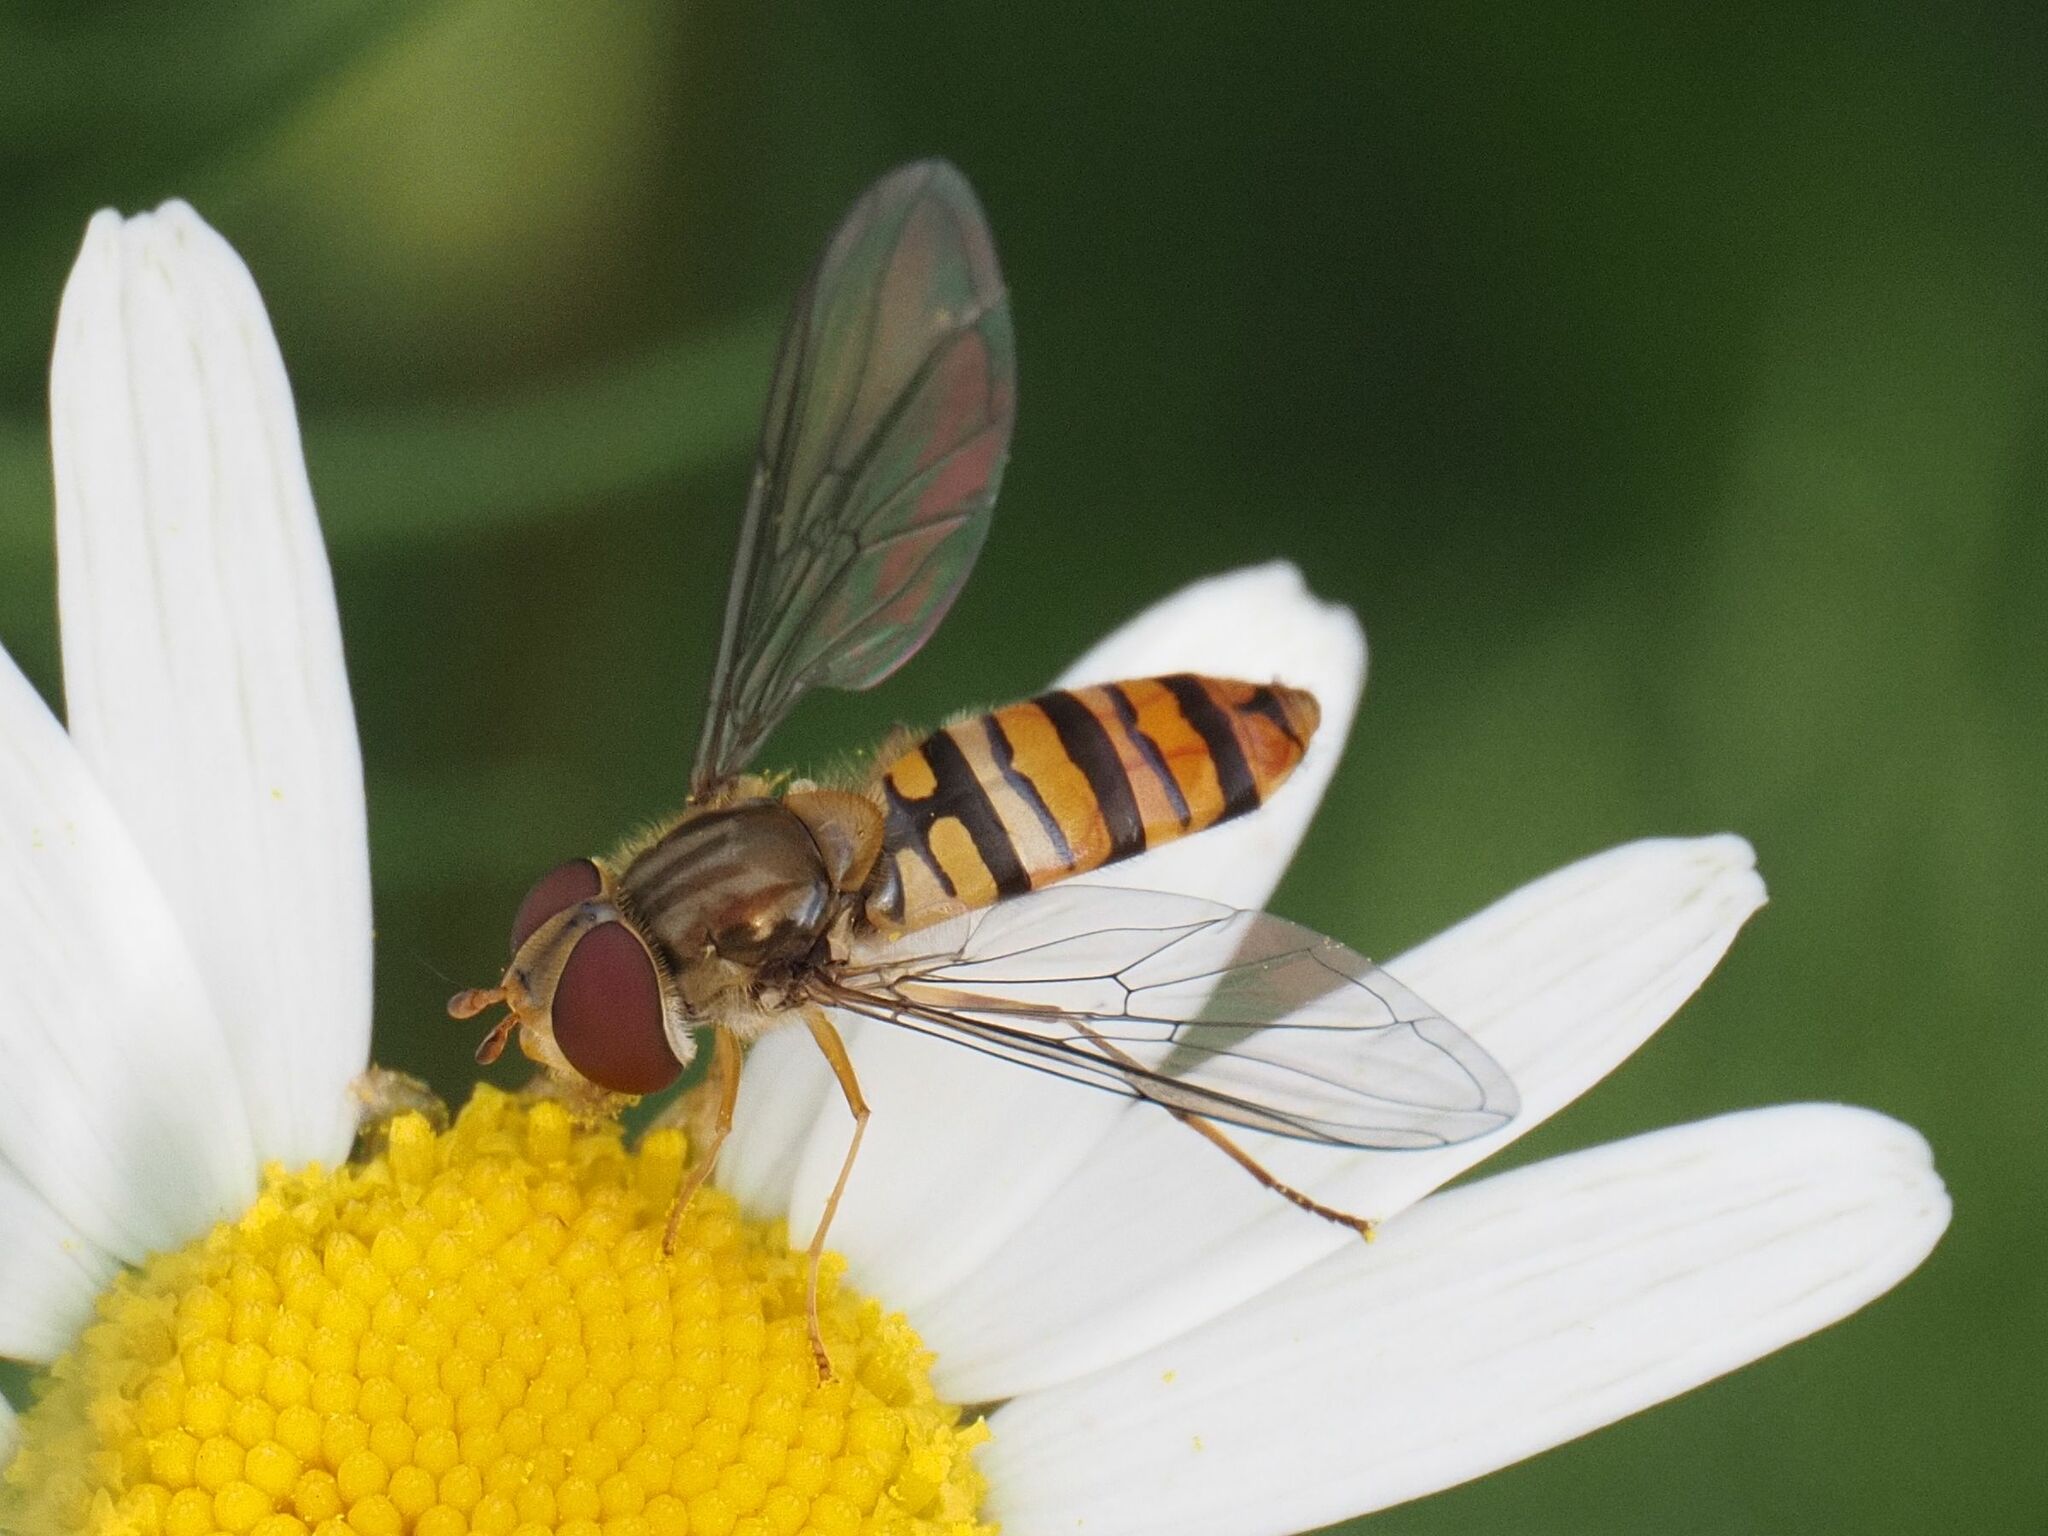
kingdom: Animalia
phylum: Arthropoda
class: Insecta
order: Diptera
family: Syrphidae
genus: Episyrphus
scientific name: Episyrphus balteatus
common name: Marmalade hoverfly
